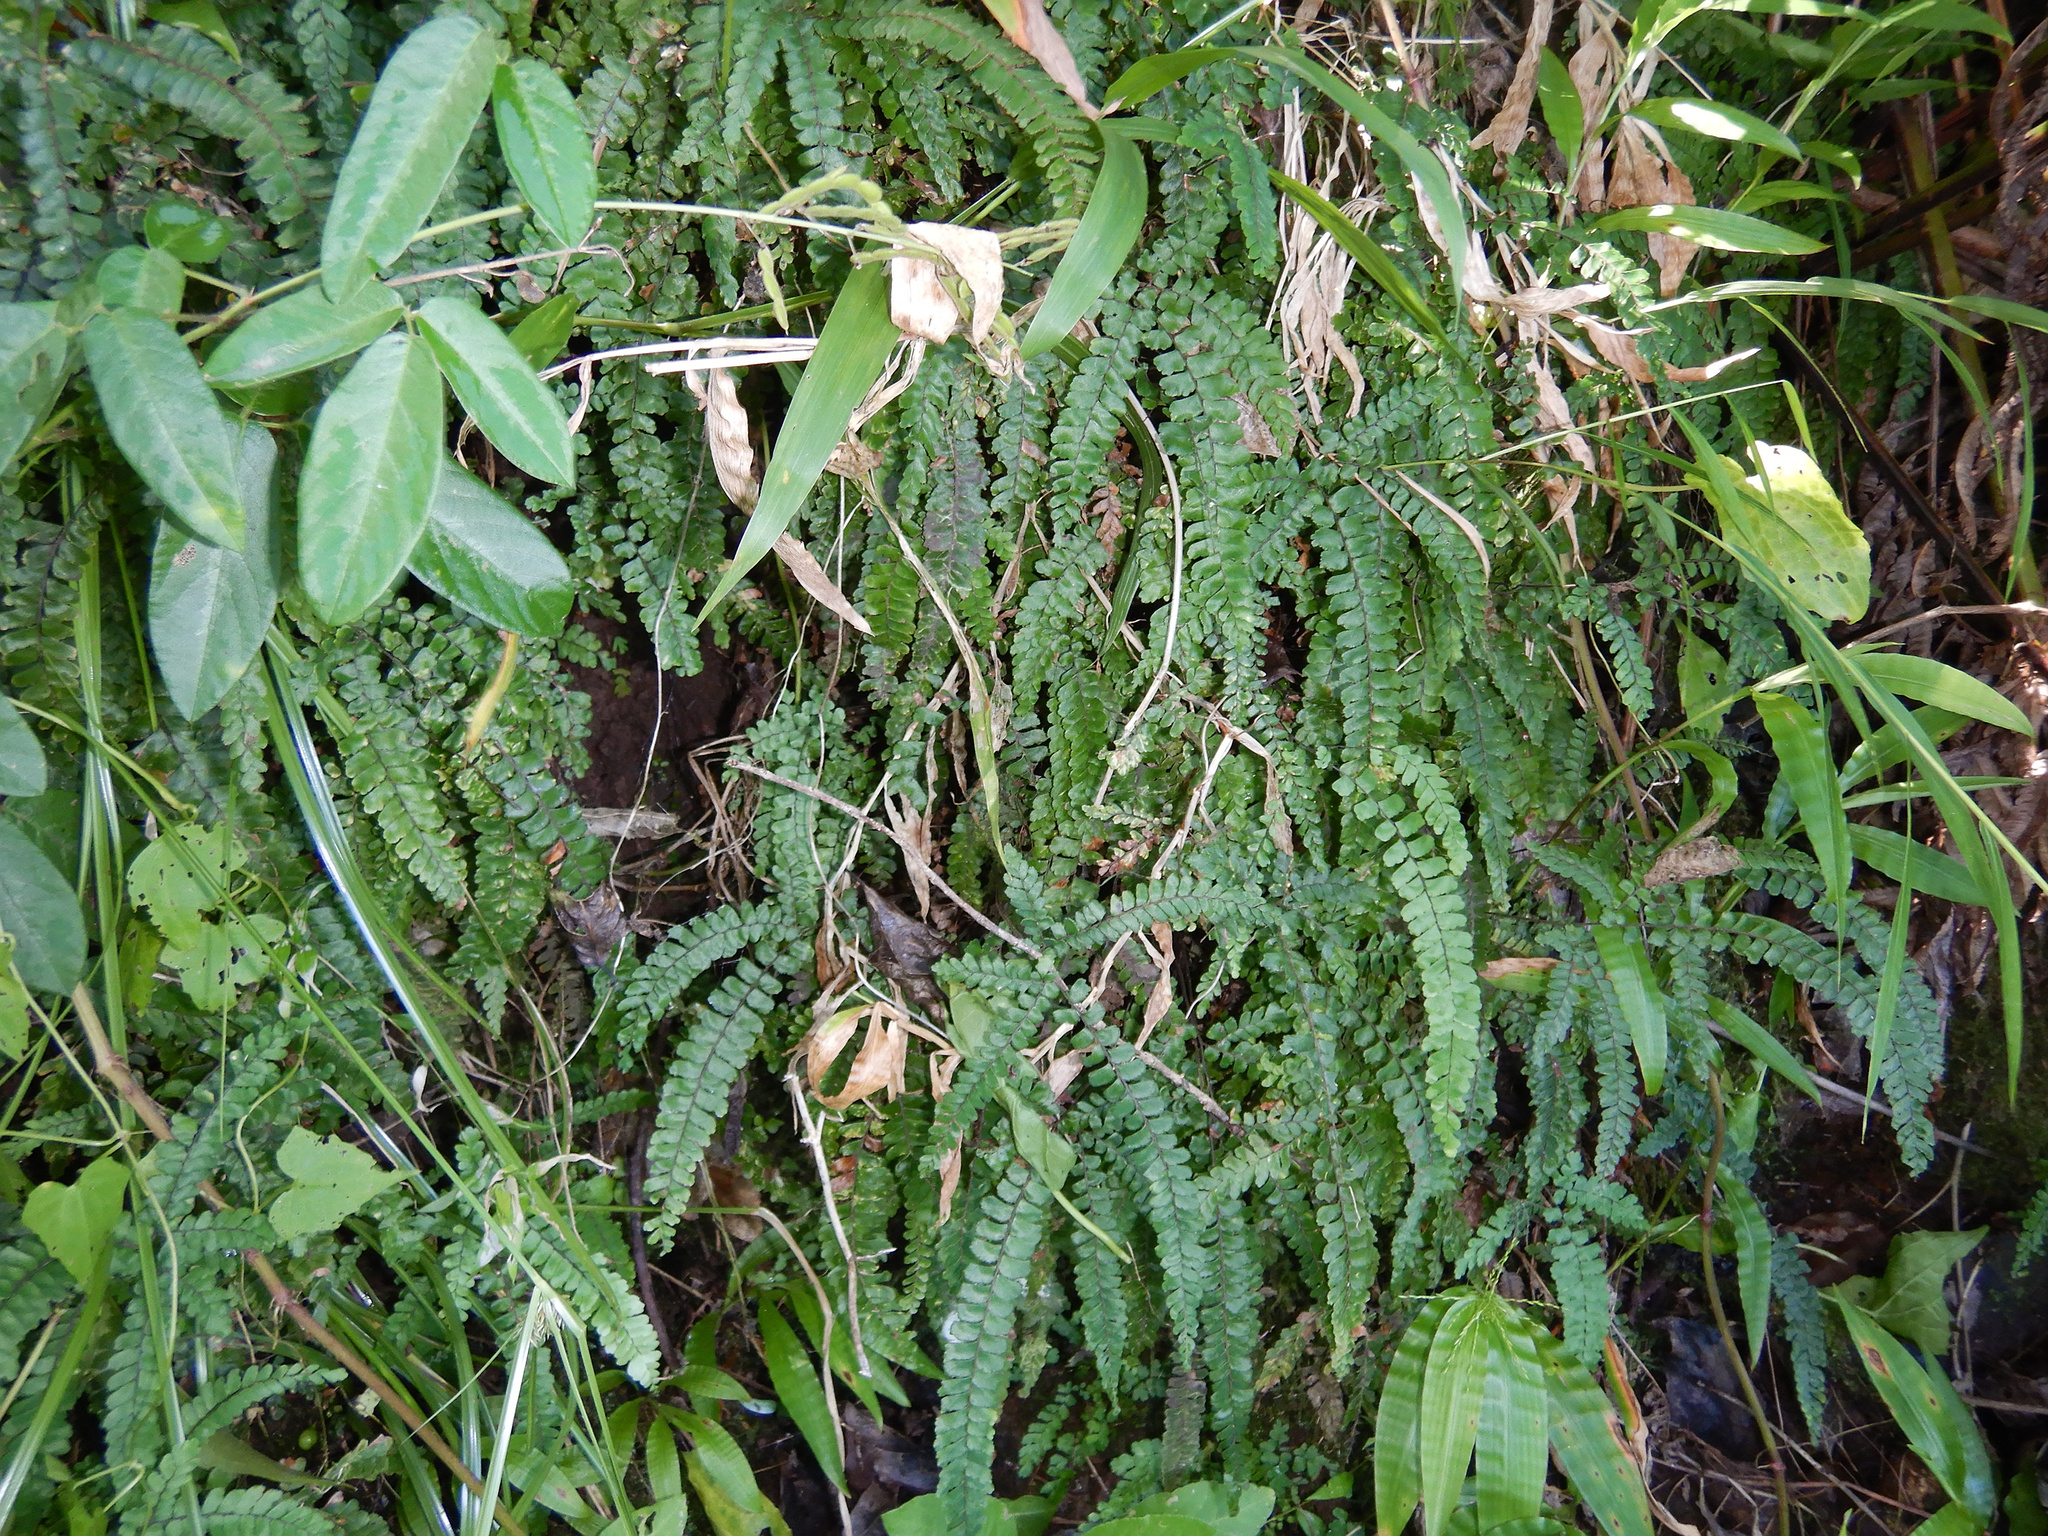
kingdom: Plantae
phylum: Tracheophyta
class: Polypodiopsida
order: Polypodiales
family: Pteridaceae
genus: Adiantum
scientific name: Adiantum hispidulum
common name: Rough maidenhair
